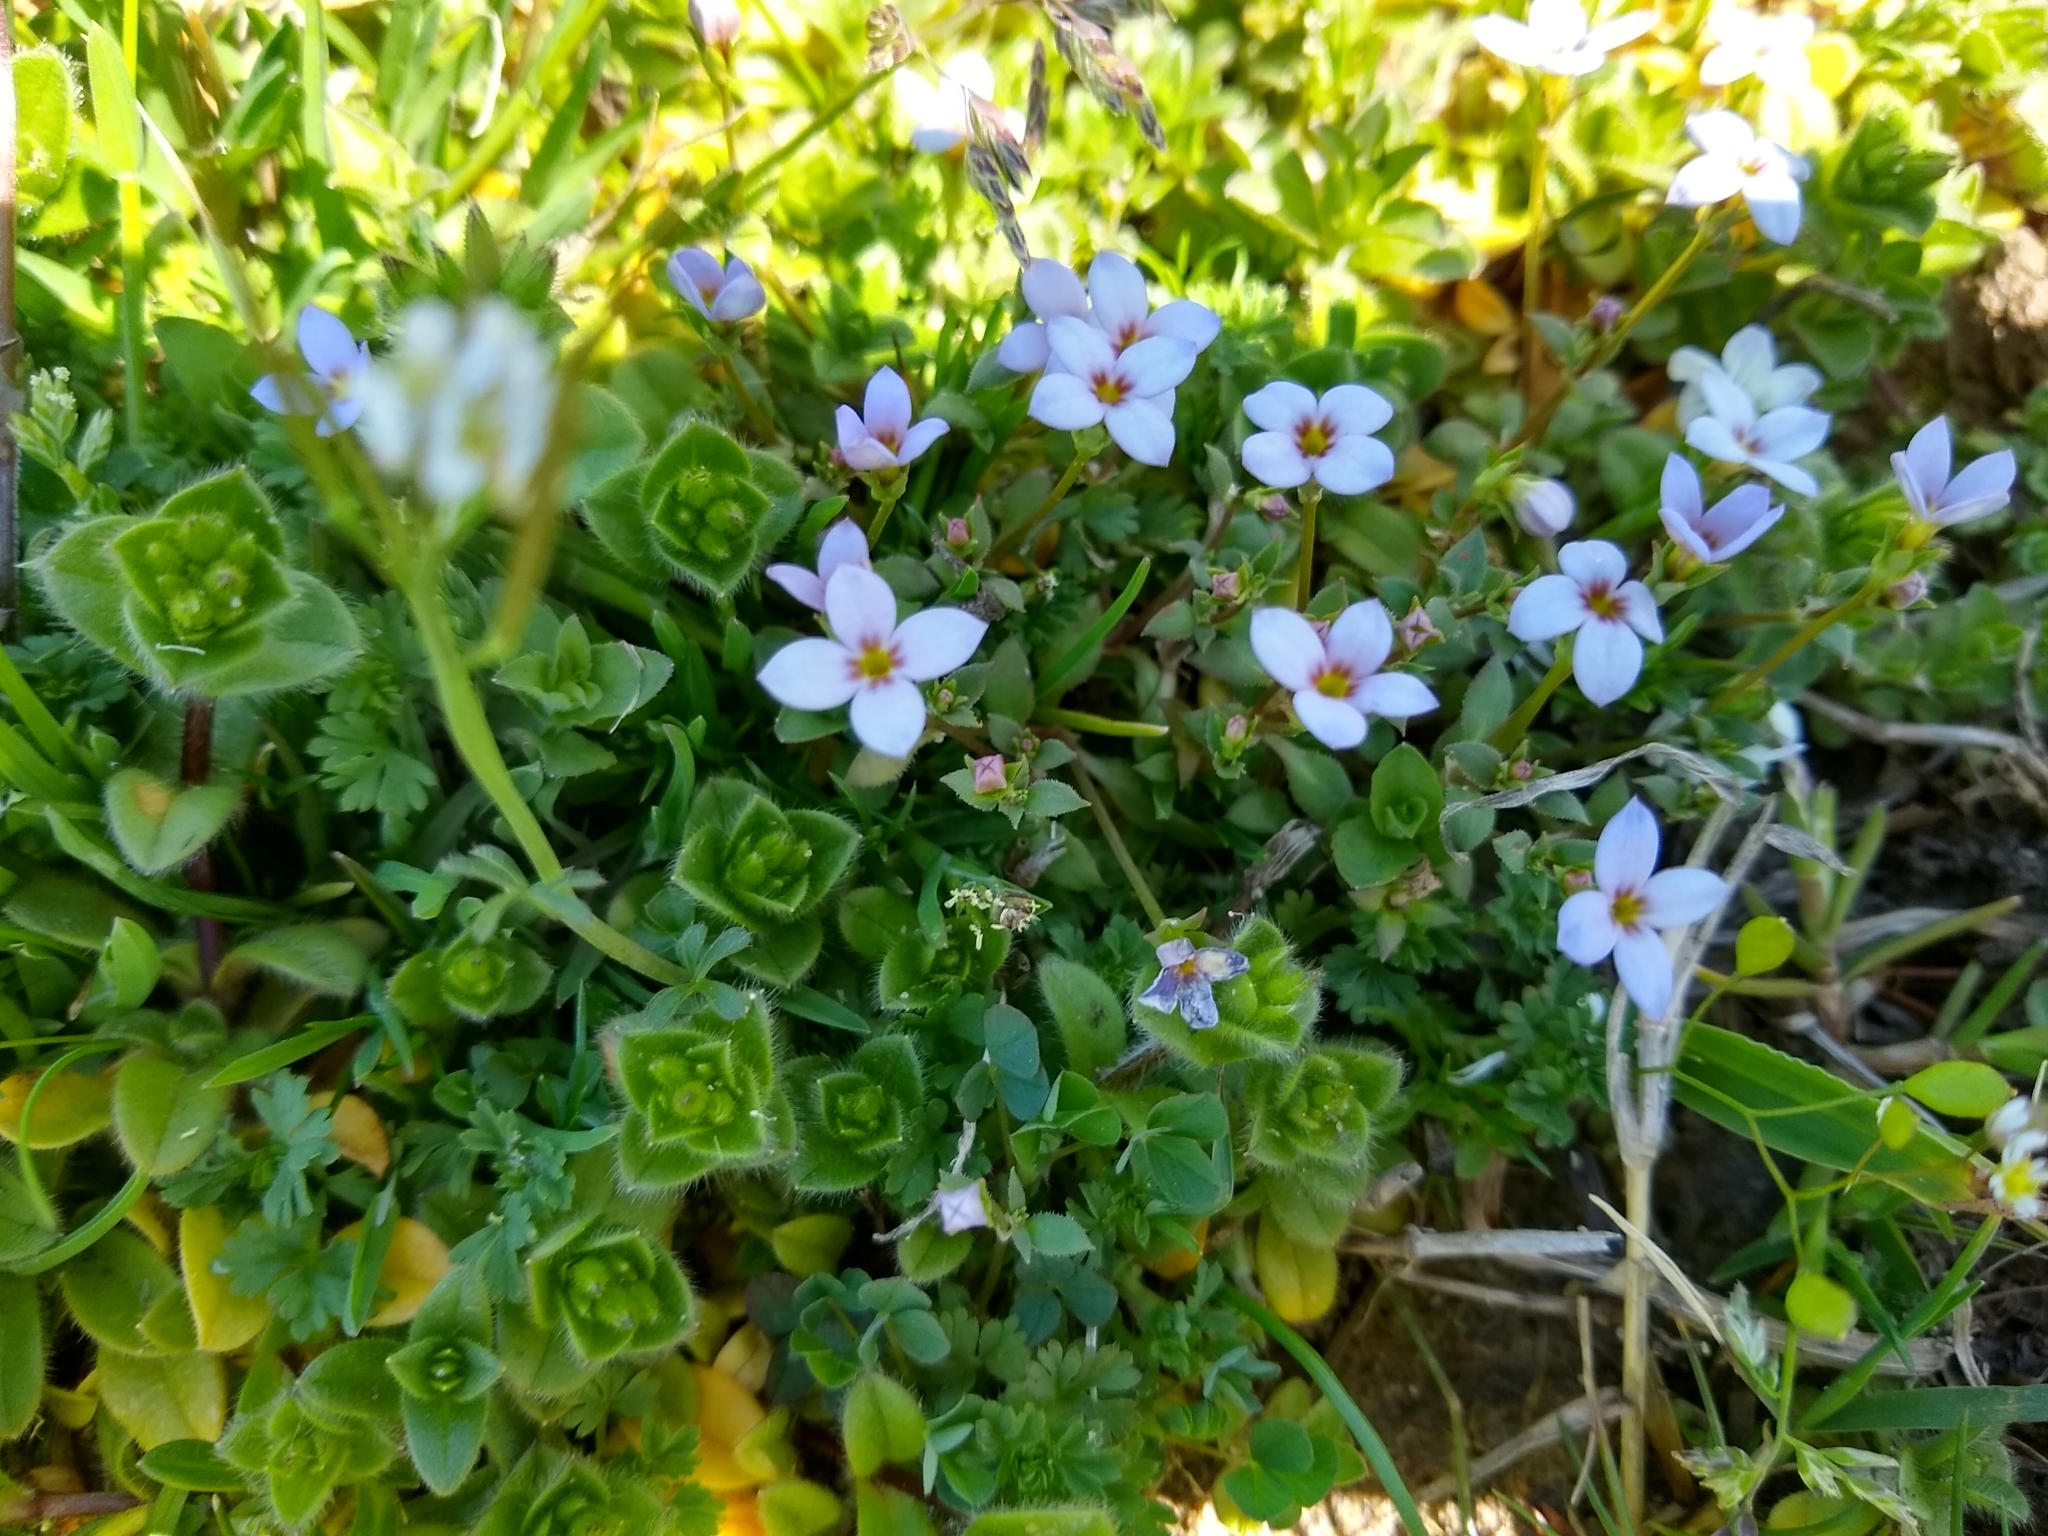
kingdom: Plantae
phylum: Tracheophyta
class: Magnoliopsida
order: Gentianales
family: Rubiaceae
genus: Houstonia
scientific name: Houstonia pusilla
